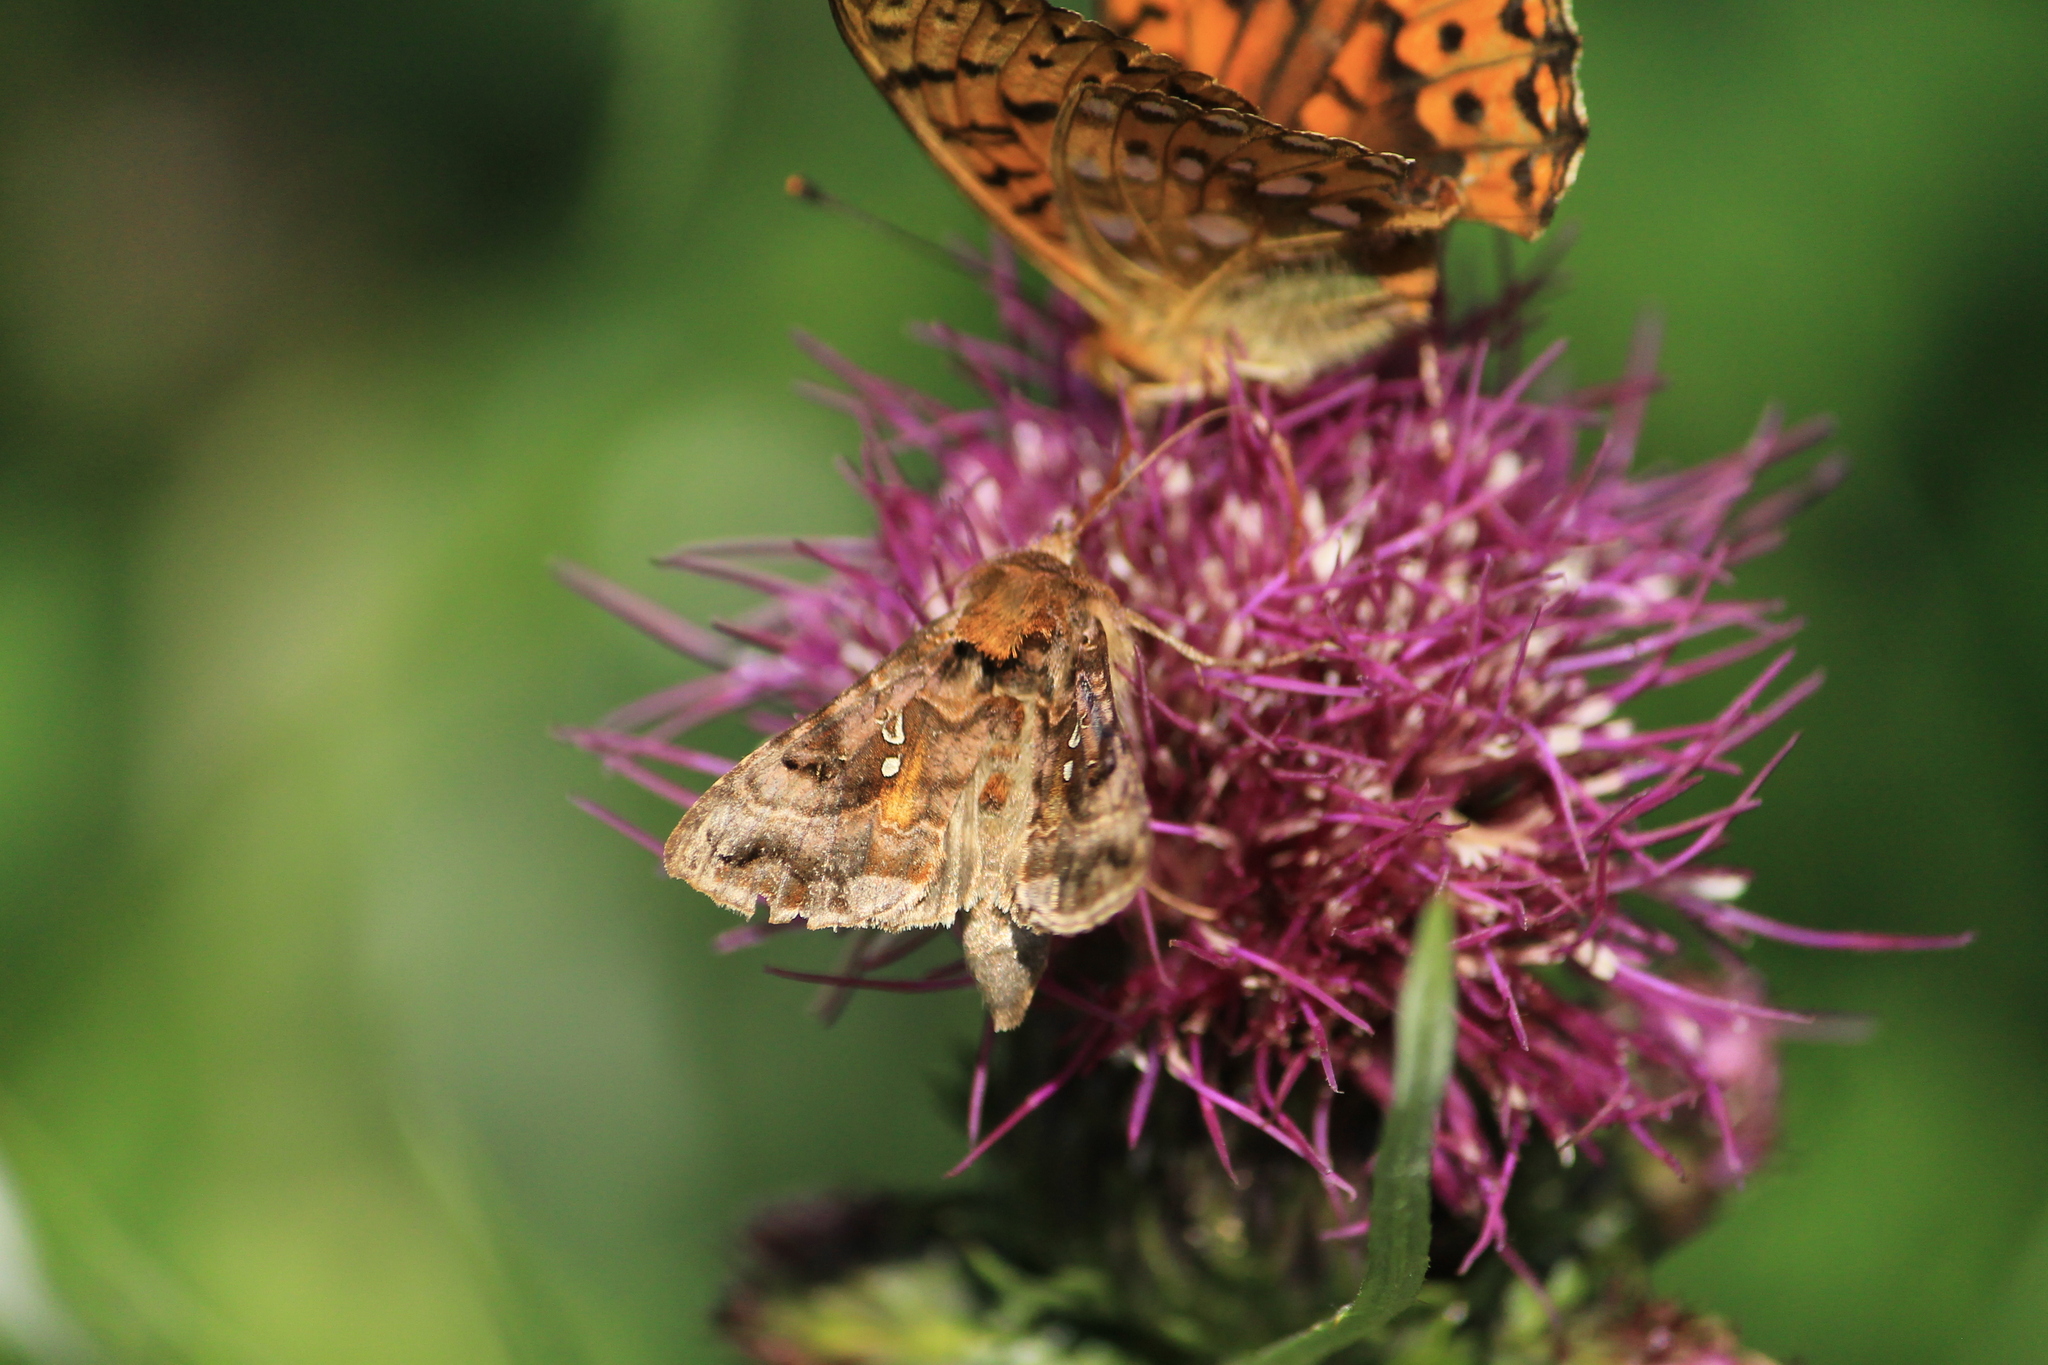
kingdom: Animalia
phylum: Arthropoda
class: Insecta
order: Lepidoptera
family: Noctuidae
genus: Autographa
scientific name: Autographa pulchrina
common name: Beautiful golden y
